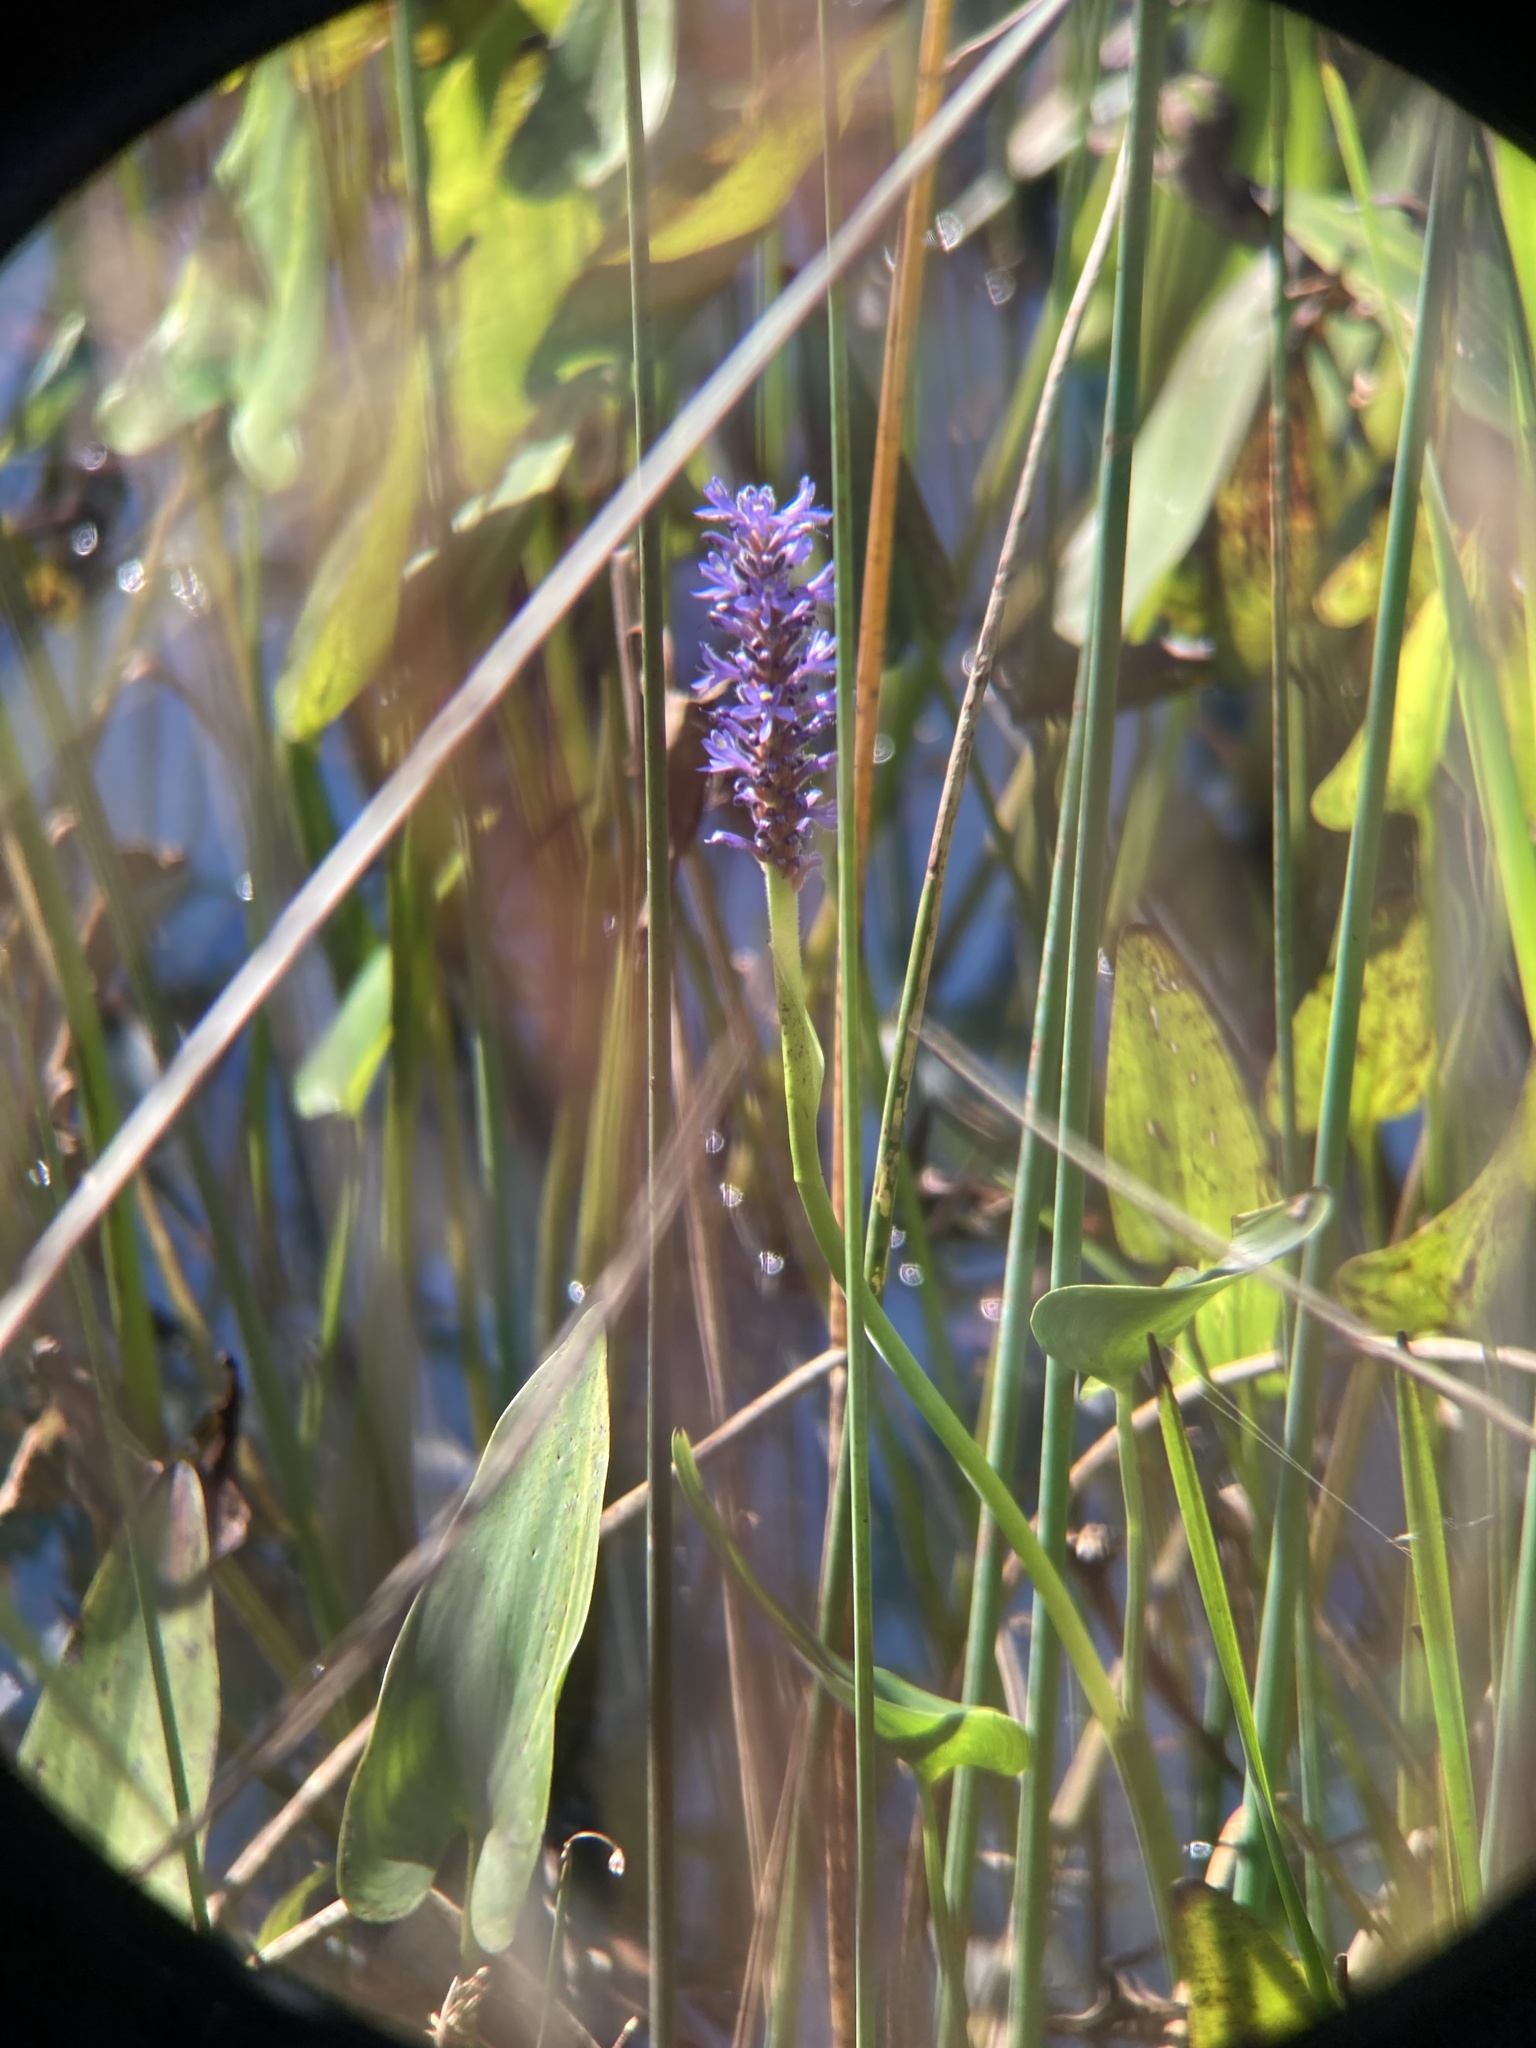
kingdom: Plantae
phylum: Tracheophyta
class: Liliopsida
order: Commelinales
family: Pontederiaceae
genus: Pontederia
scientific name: Pontederia cordata
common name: Pickerelweed
